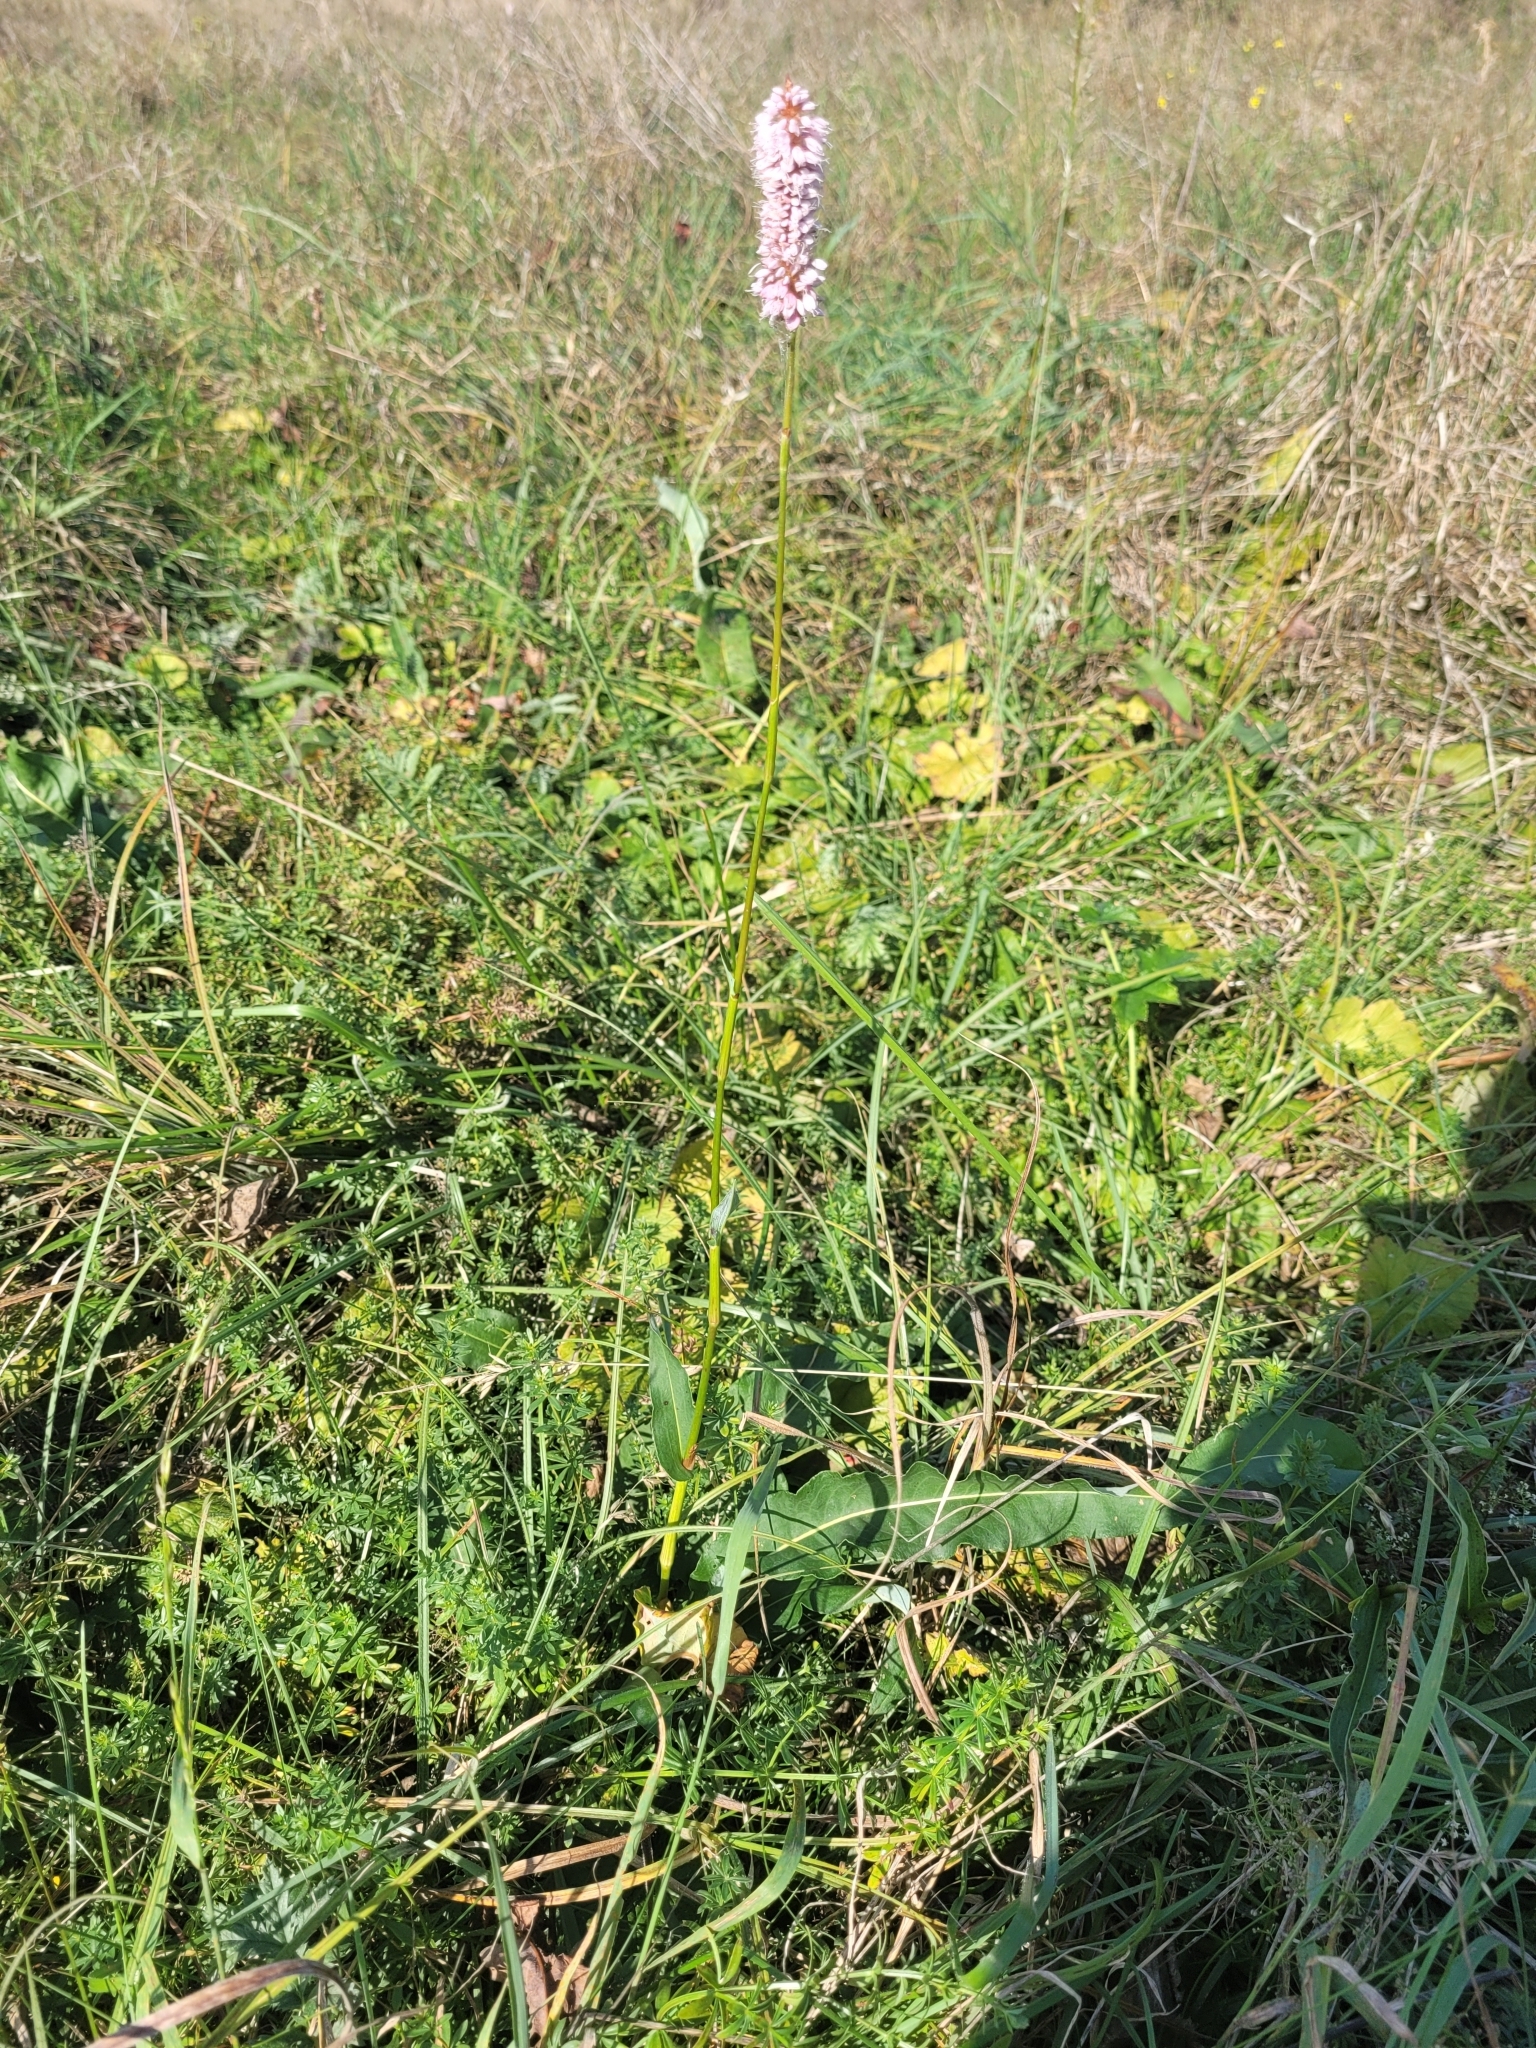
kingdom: Plantae
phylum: Tracheophyta
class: Magnoliopsida
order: Caryophyllales
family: Polygonaceae
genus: Bistorta
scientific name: Bistorta officinalis
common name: Common bistort
